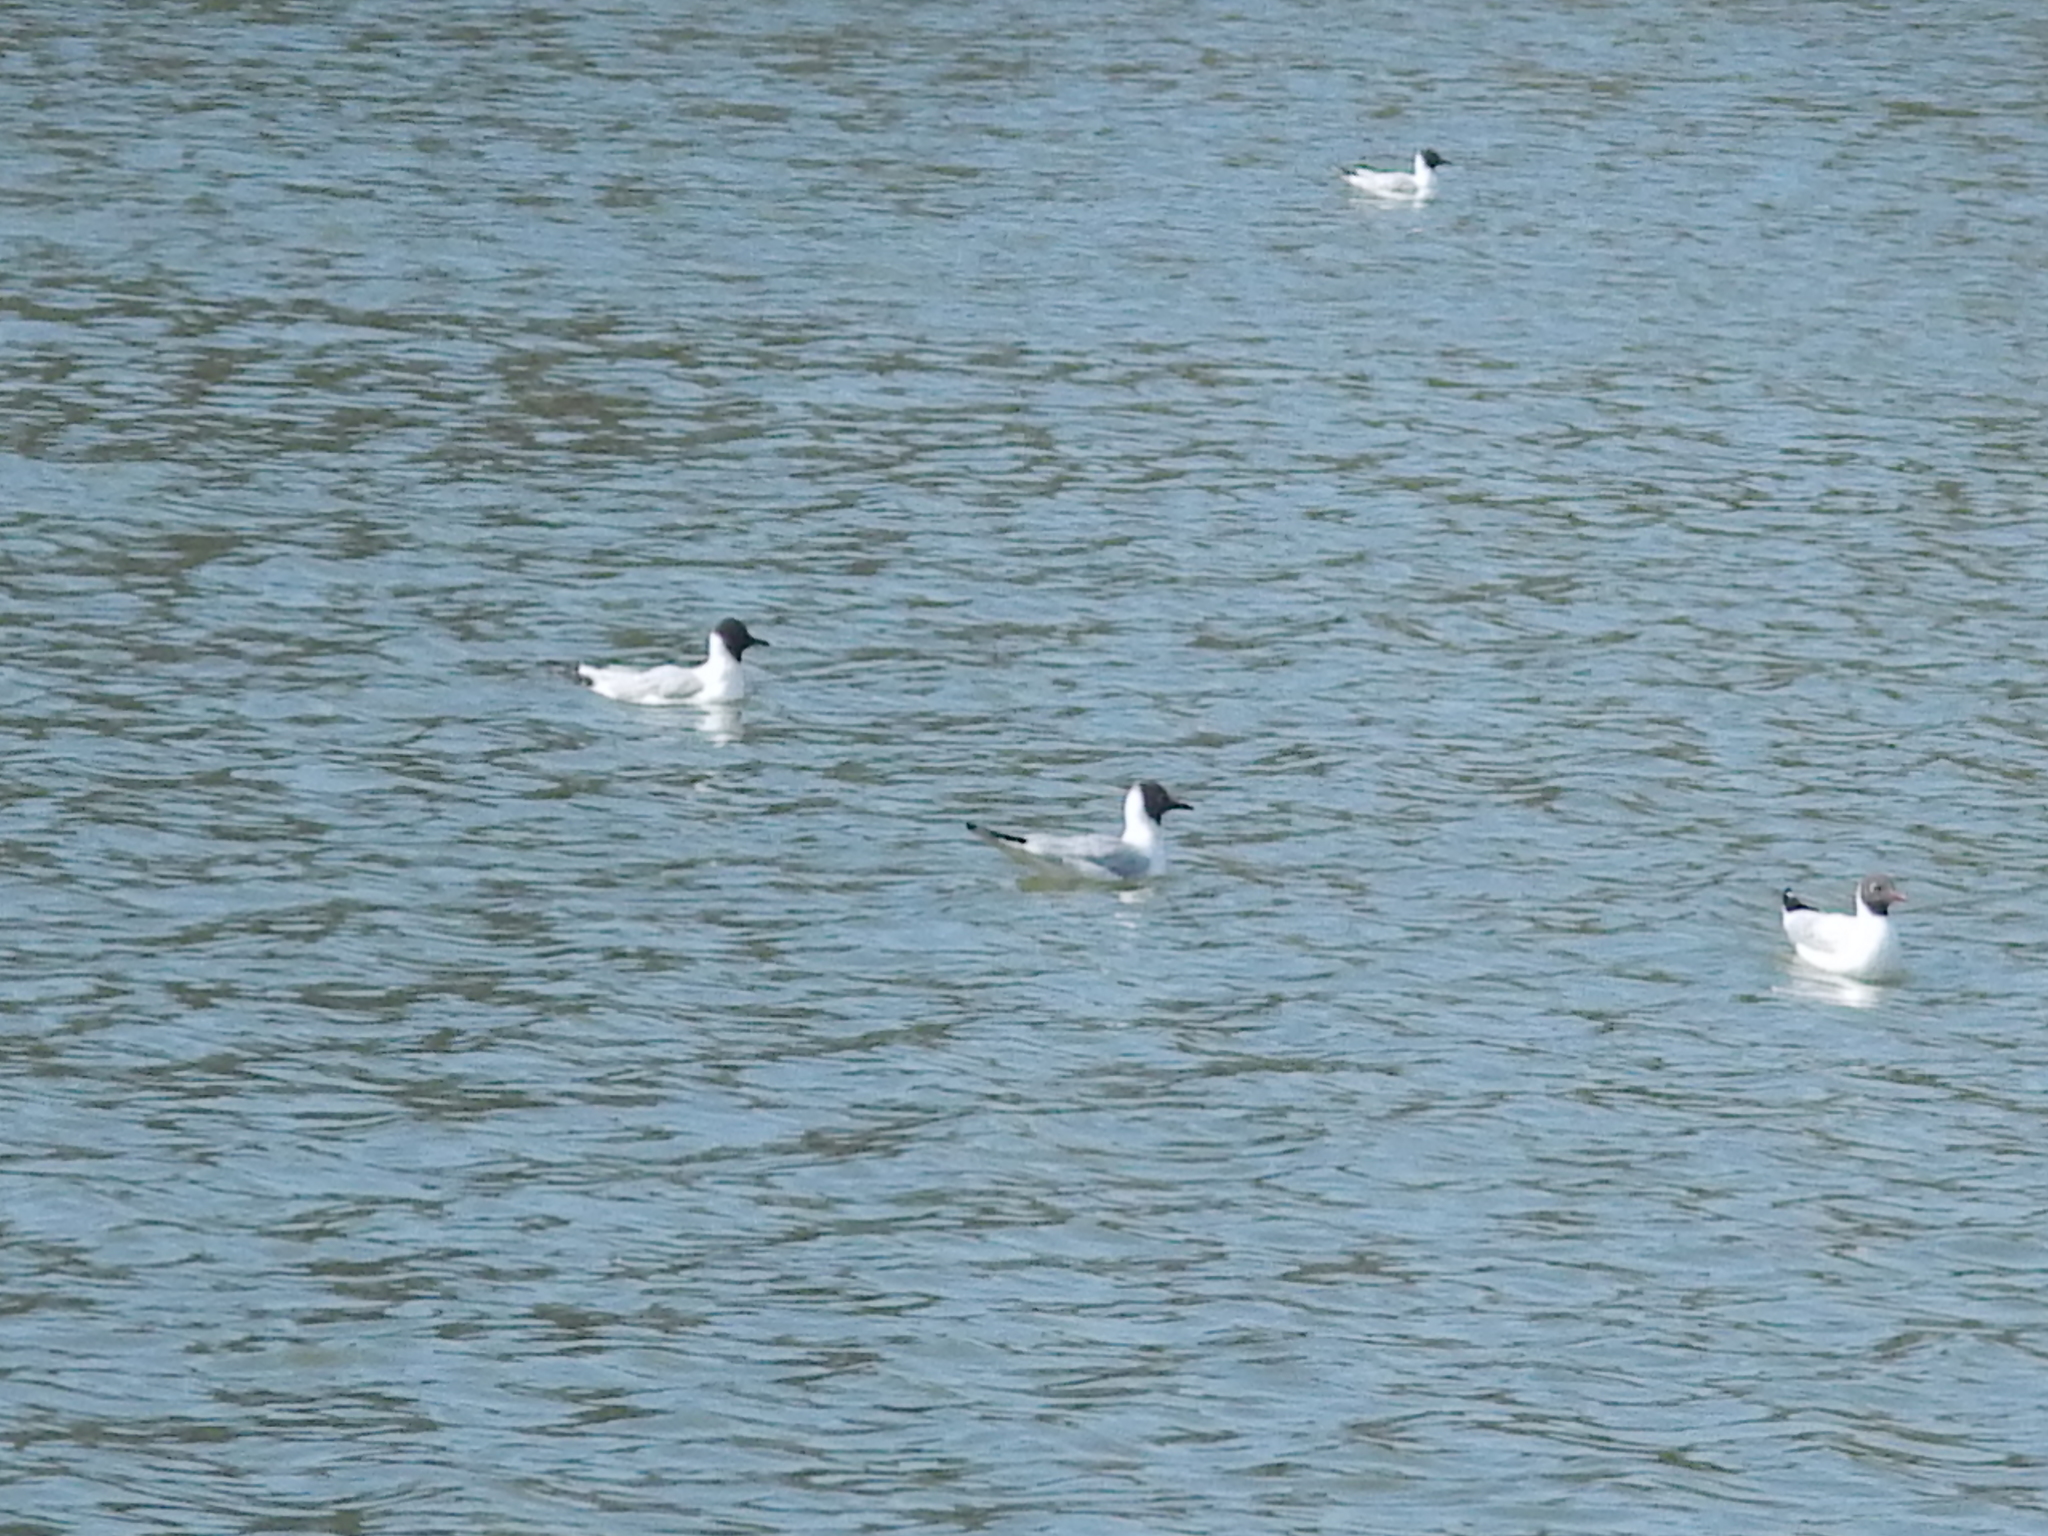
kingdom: Animalia
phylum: Chordata
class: Aves
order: Charadriiformes
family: Laridae
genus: Chroicocephalus
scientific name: Chroicocephalus ridibundus
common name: Black-headed gull
